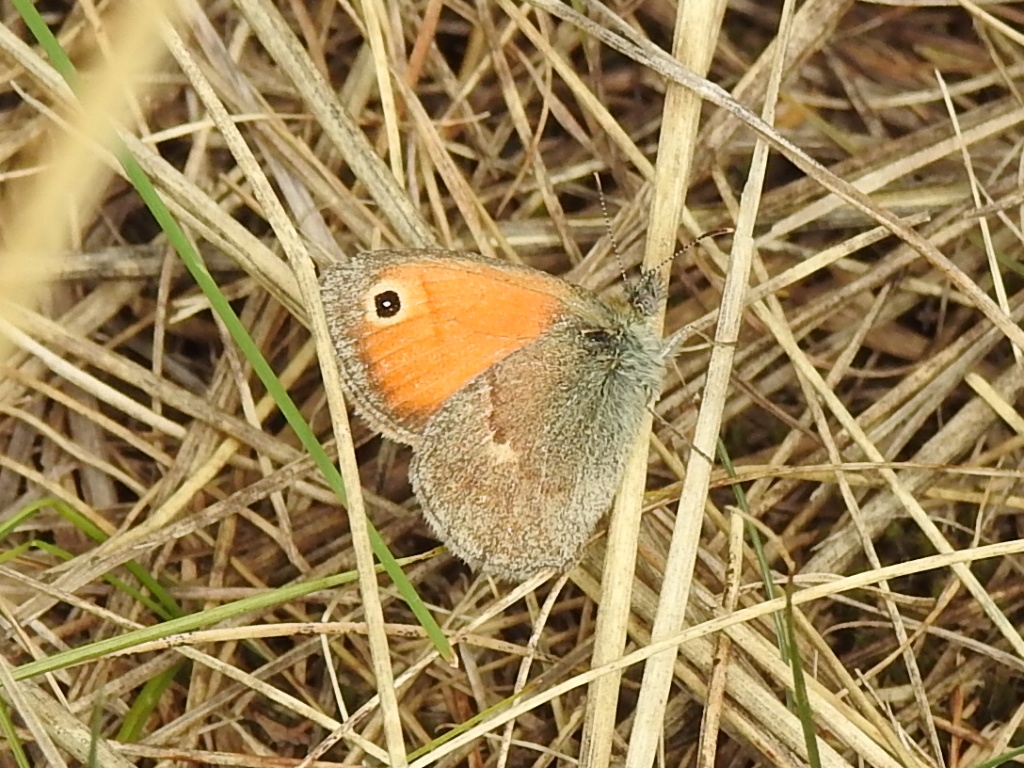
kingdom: Animalia
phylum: Arthropoda
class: Insecta
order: Lepidoptera
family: Nymphalidae
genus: Coenonympha
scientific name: Coenonympha pamphilus
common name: Small heath
